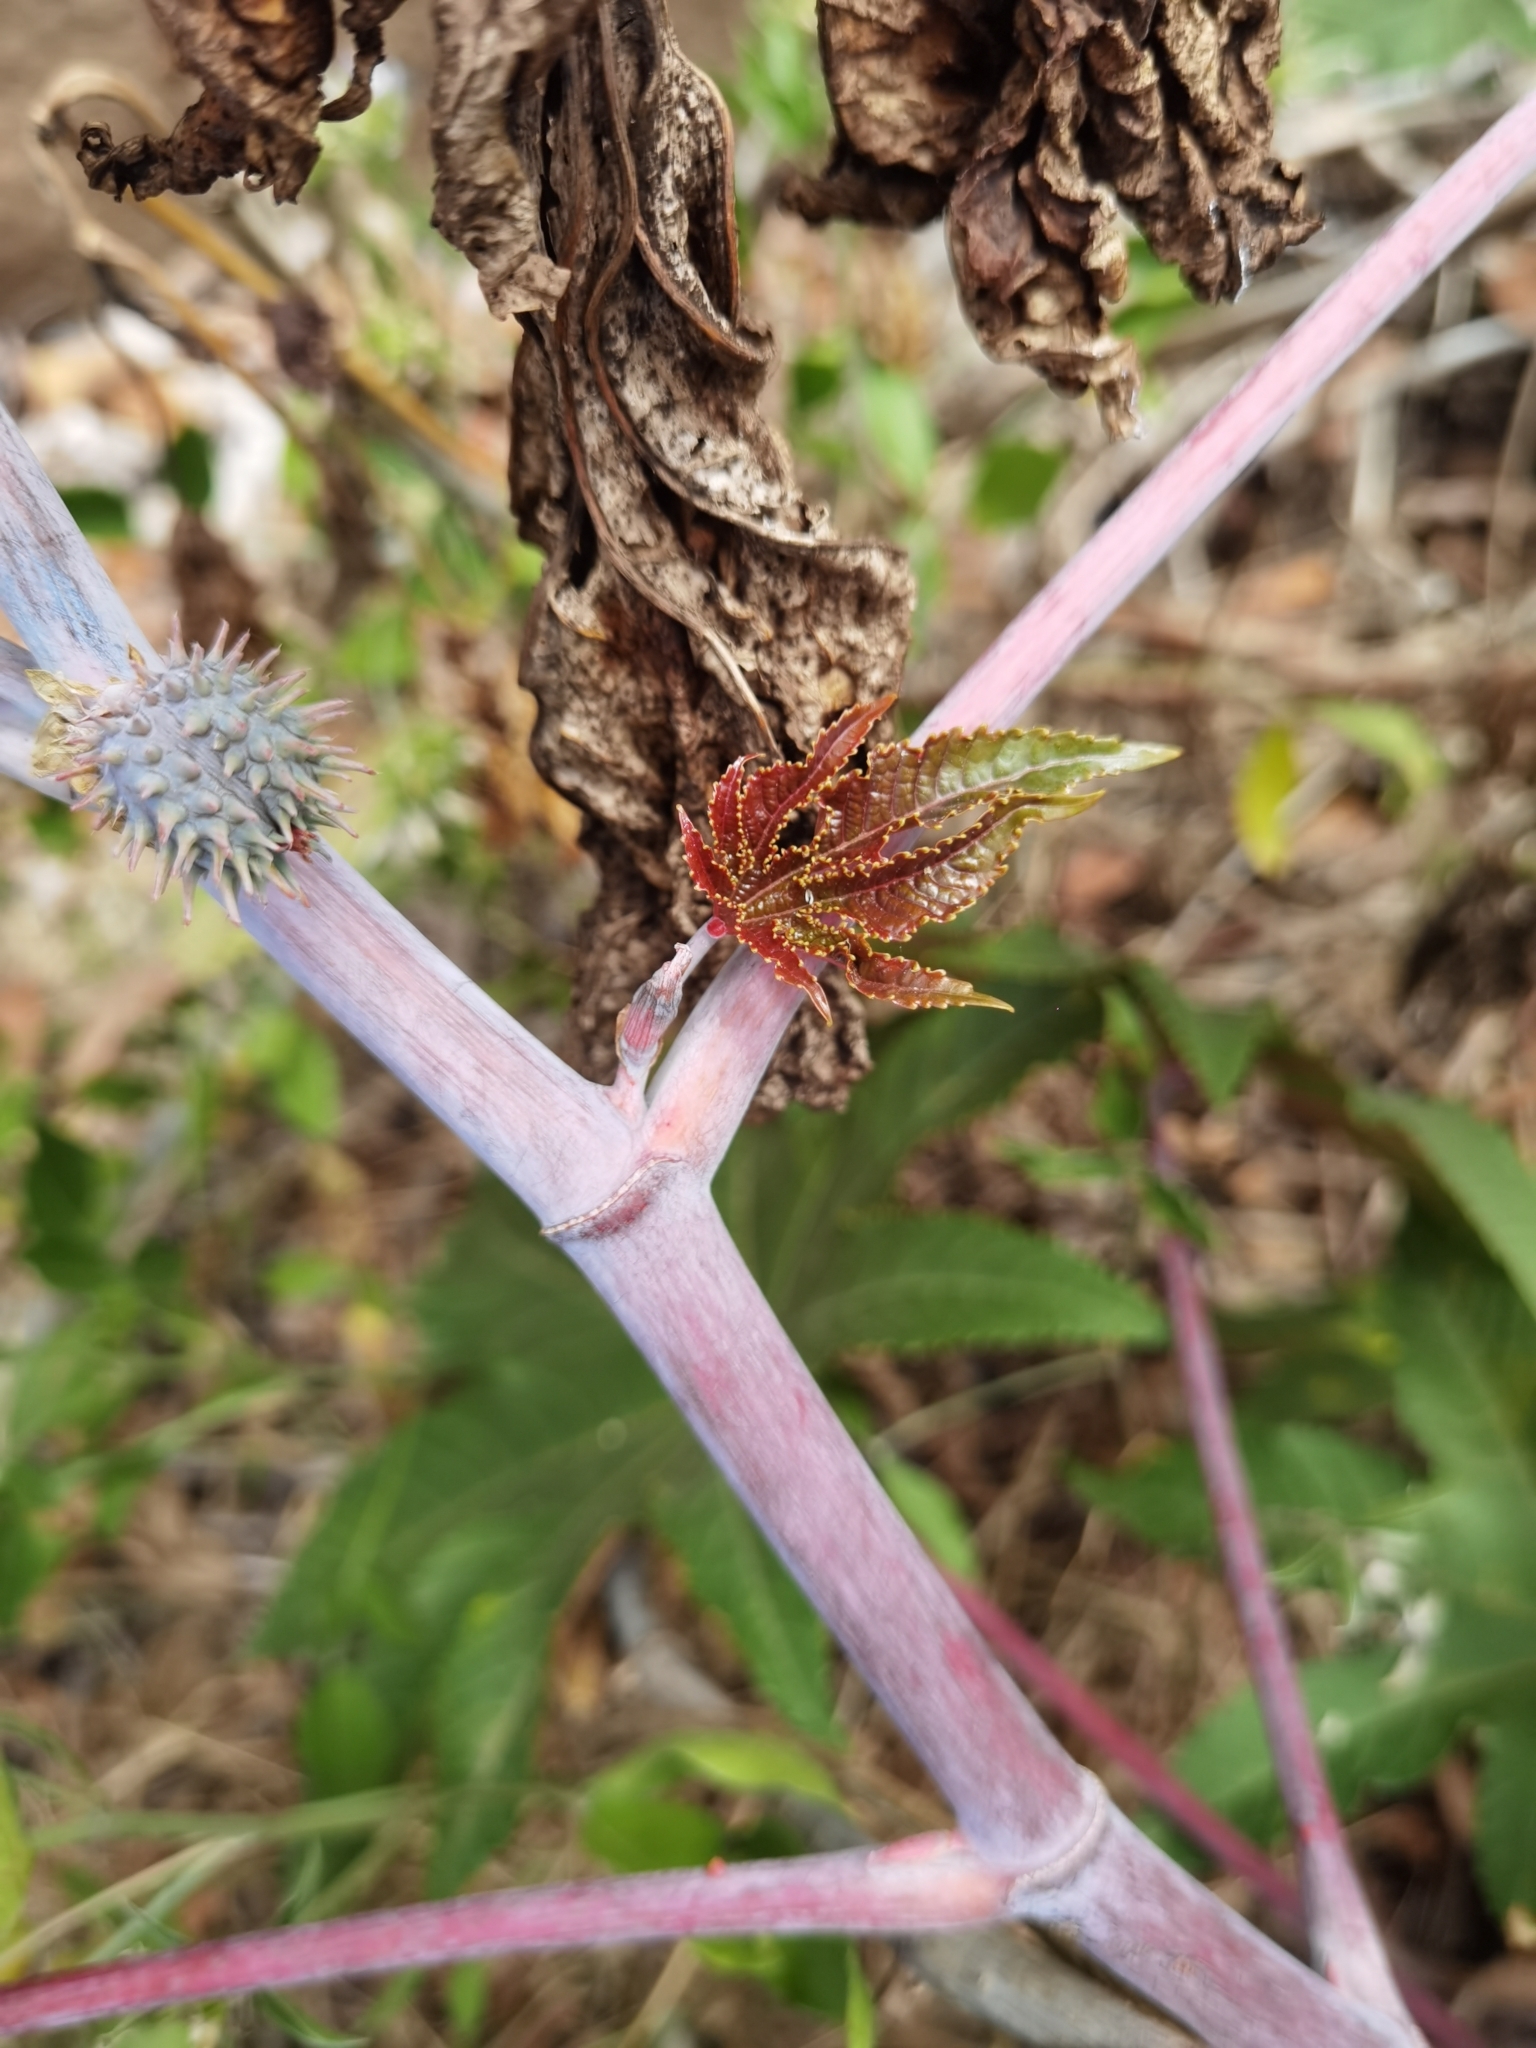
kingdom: Plantae
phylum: Tracheophyta
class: Magnoliopsida
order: Malpighiales
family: Euphorbiaceae
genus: Ricinus
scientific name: Ricinus communis
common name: Castor-oil-plant
